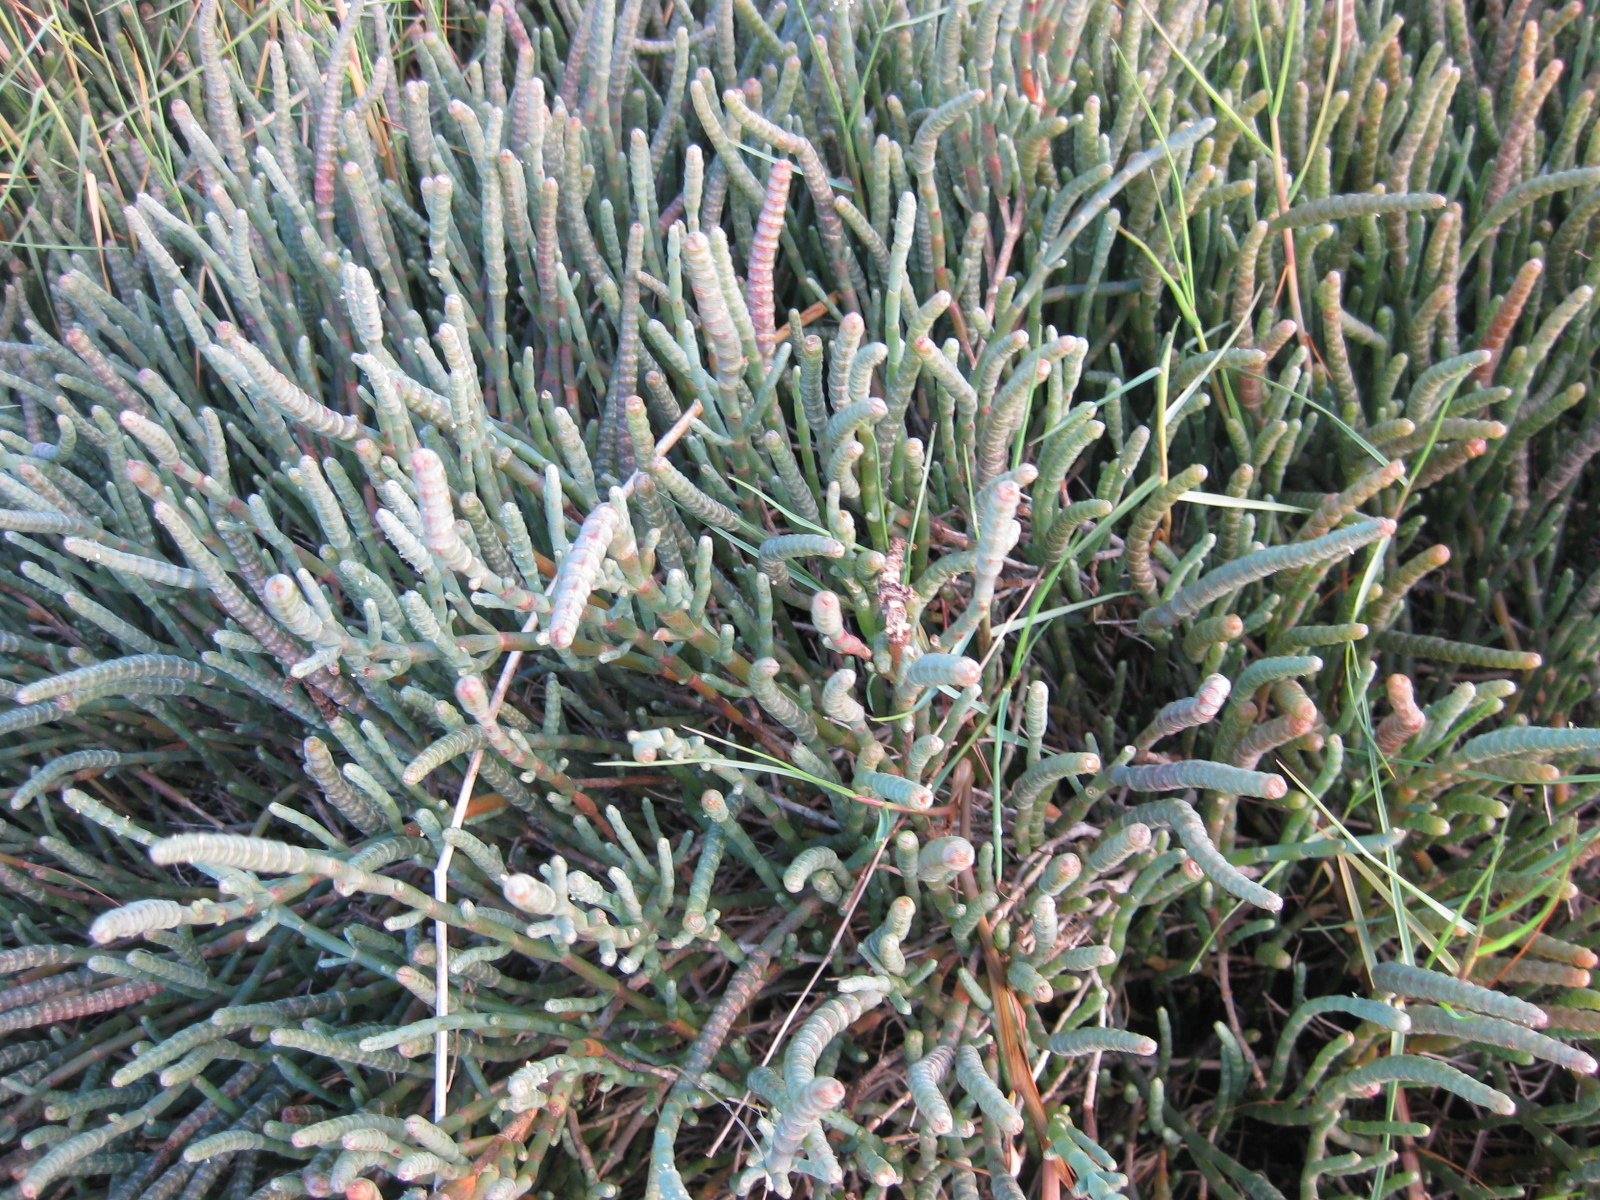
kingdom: Plantae
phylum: Tracheophyta
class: Magnoliopsida
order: Caryophyllales
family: Amaranthaceae
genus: Salicornia
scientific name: Salicornia quinqueflora
